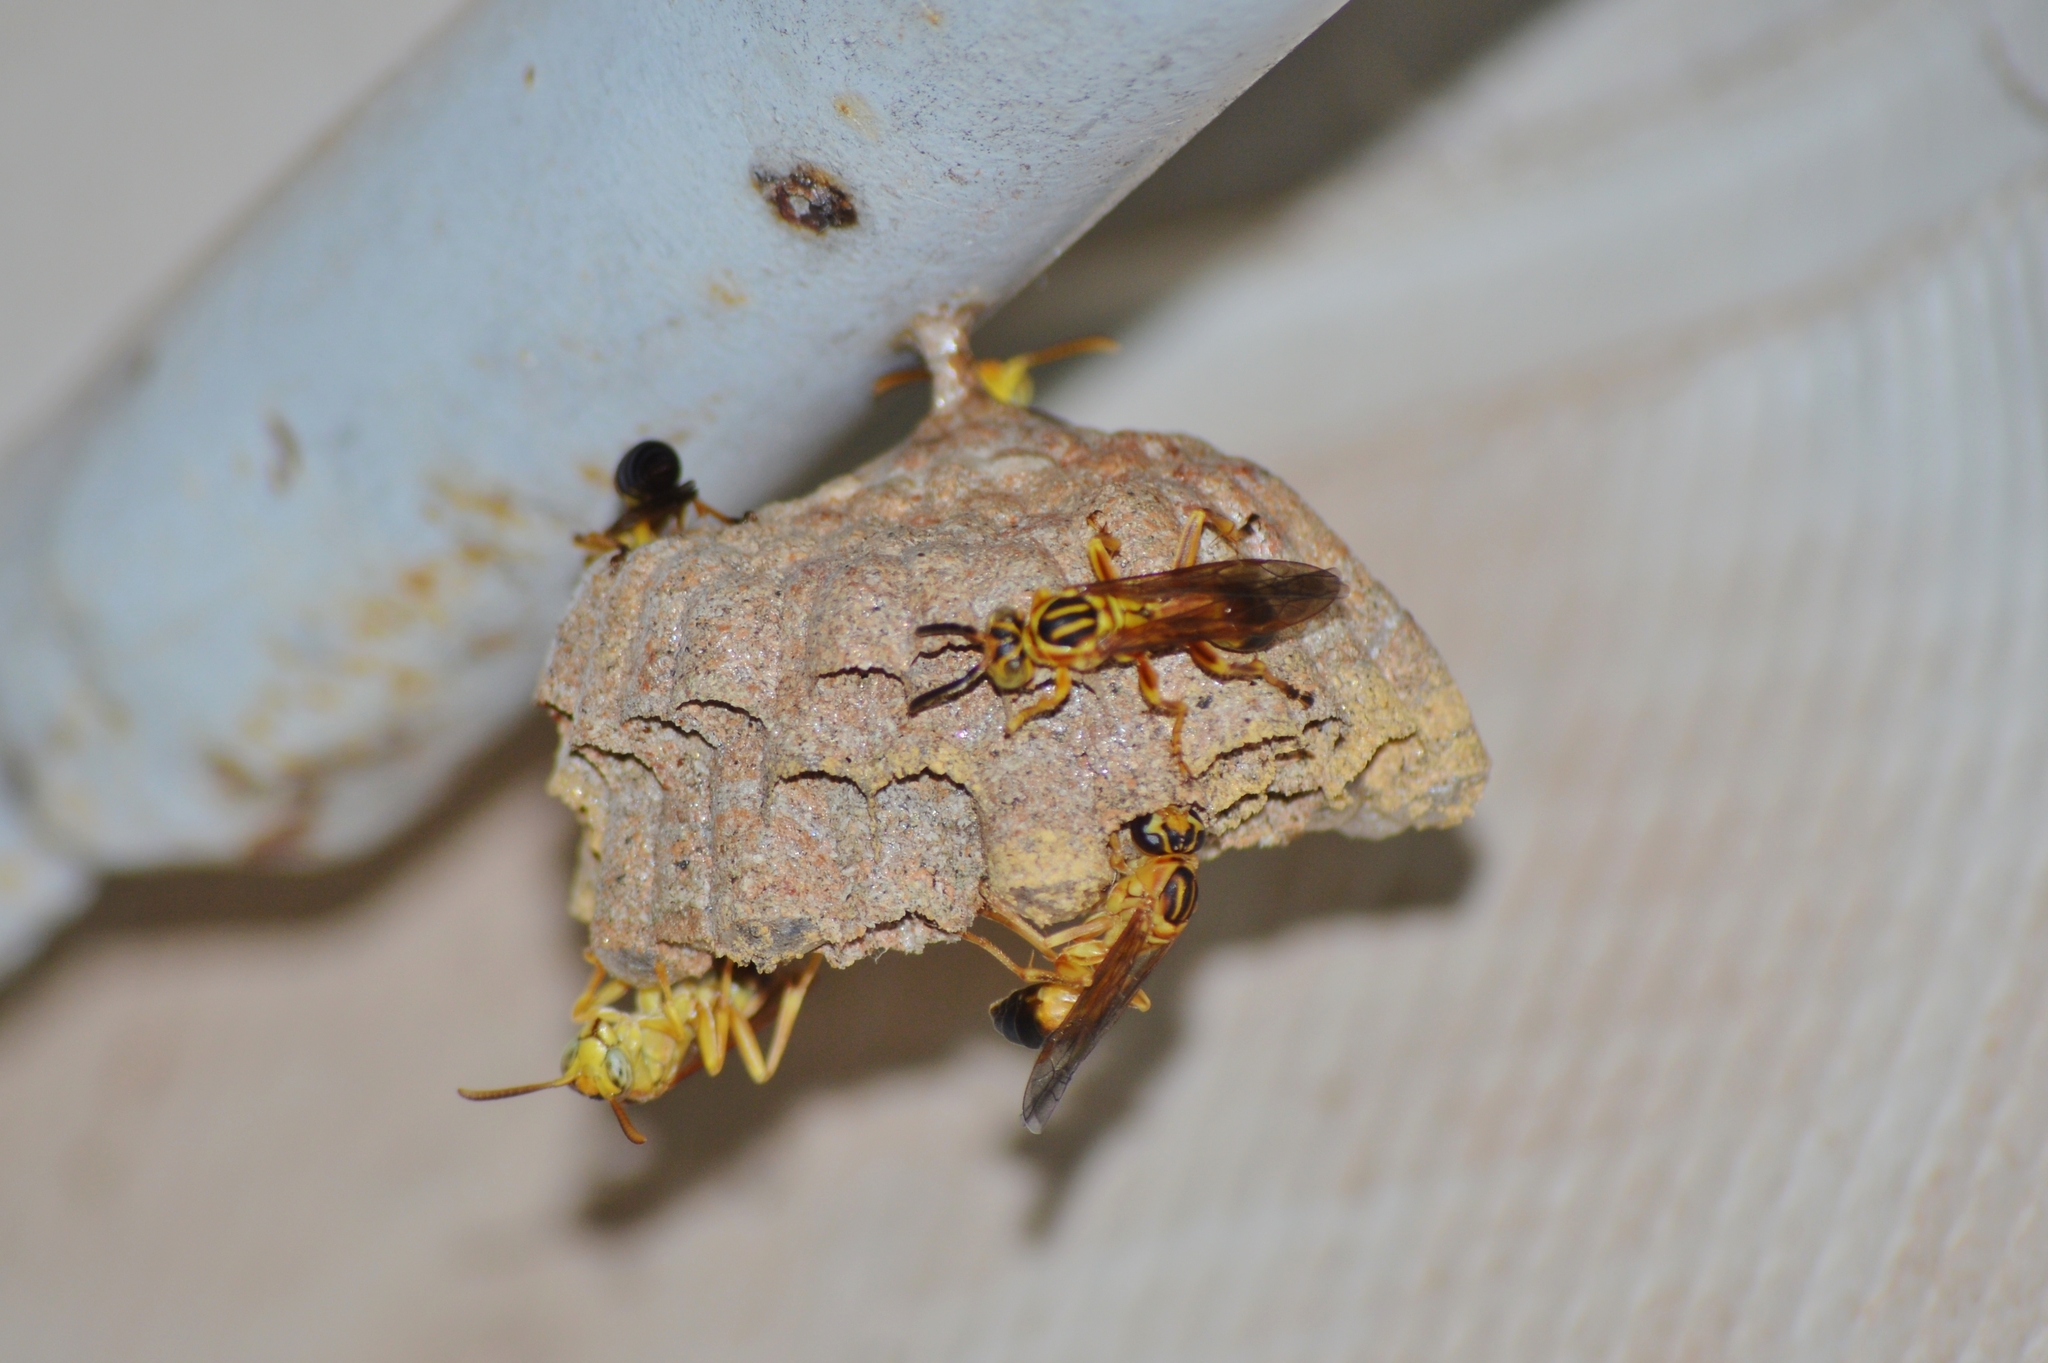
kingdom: Animalia
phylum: Arthropoda
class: Insecta
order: Hymenoptera
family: Vespidae
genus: Mischocyttarus
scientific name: Mischocyttarus cerberus
